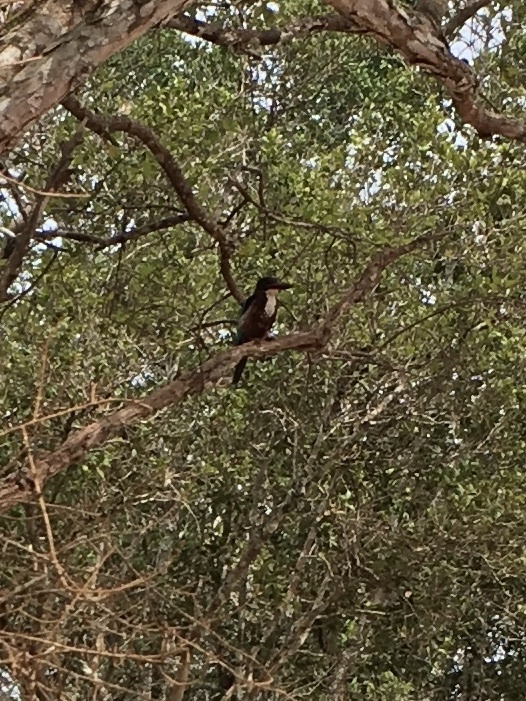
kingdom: Animalia
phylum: Chordata
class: Aves
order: Coraciiformes
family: Alcedinidae
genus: Halcyon
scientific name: Halcyon smyrnensis
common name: White-throated kingfisher
